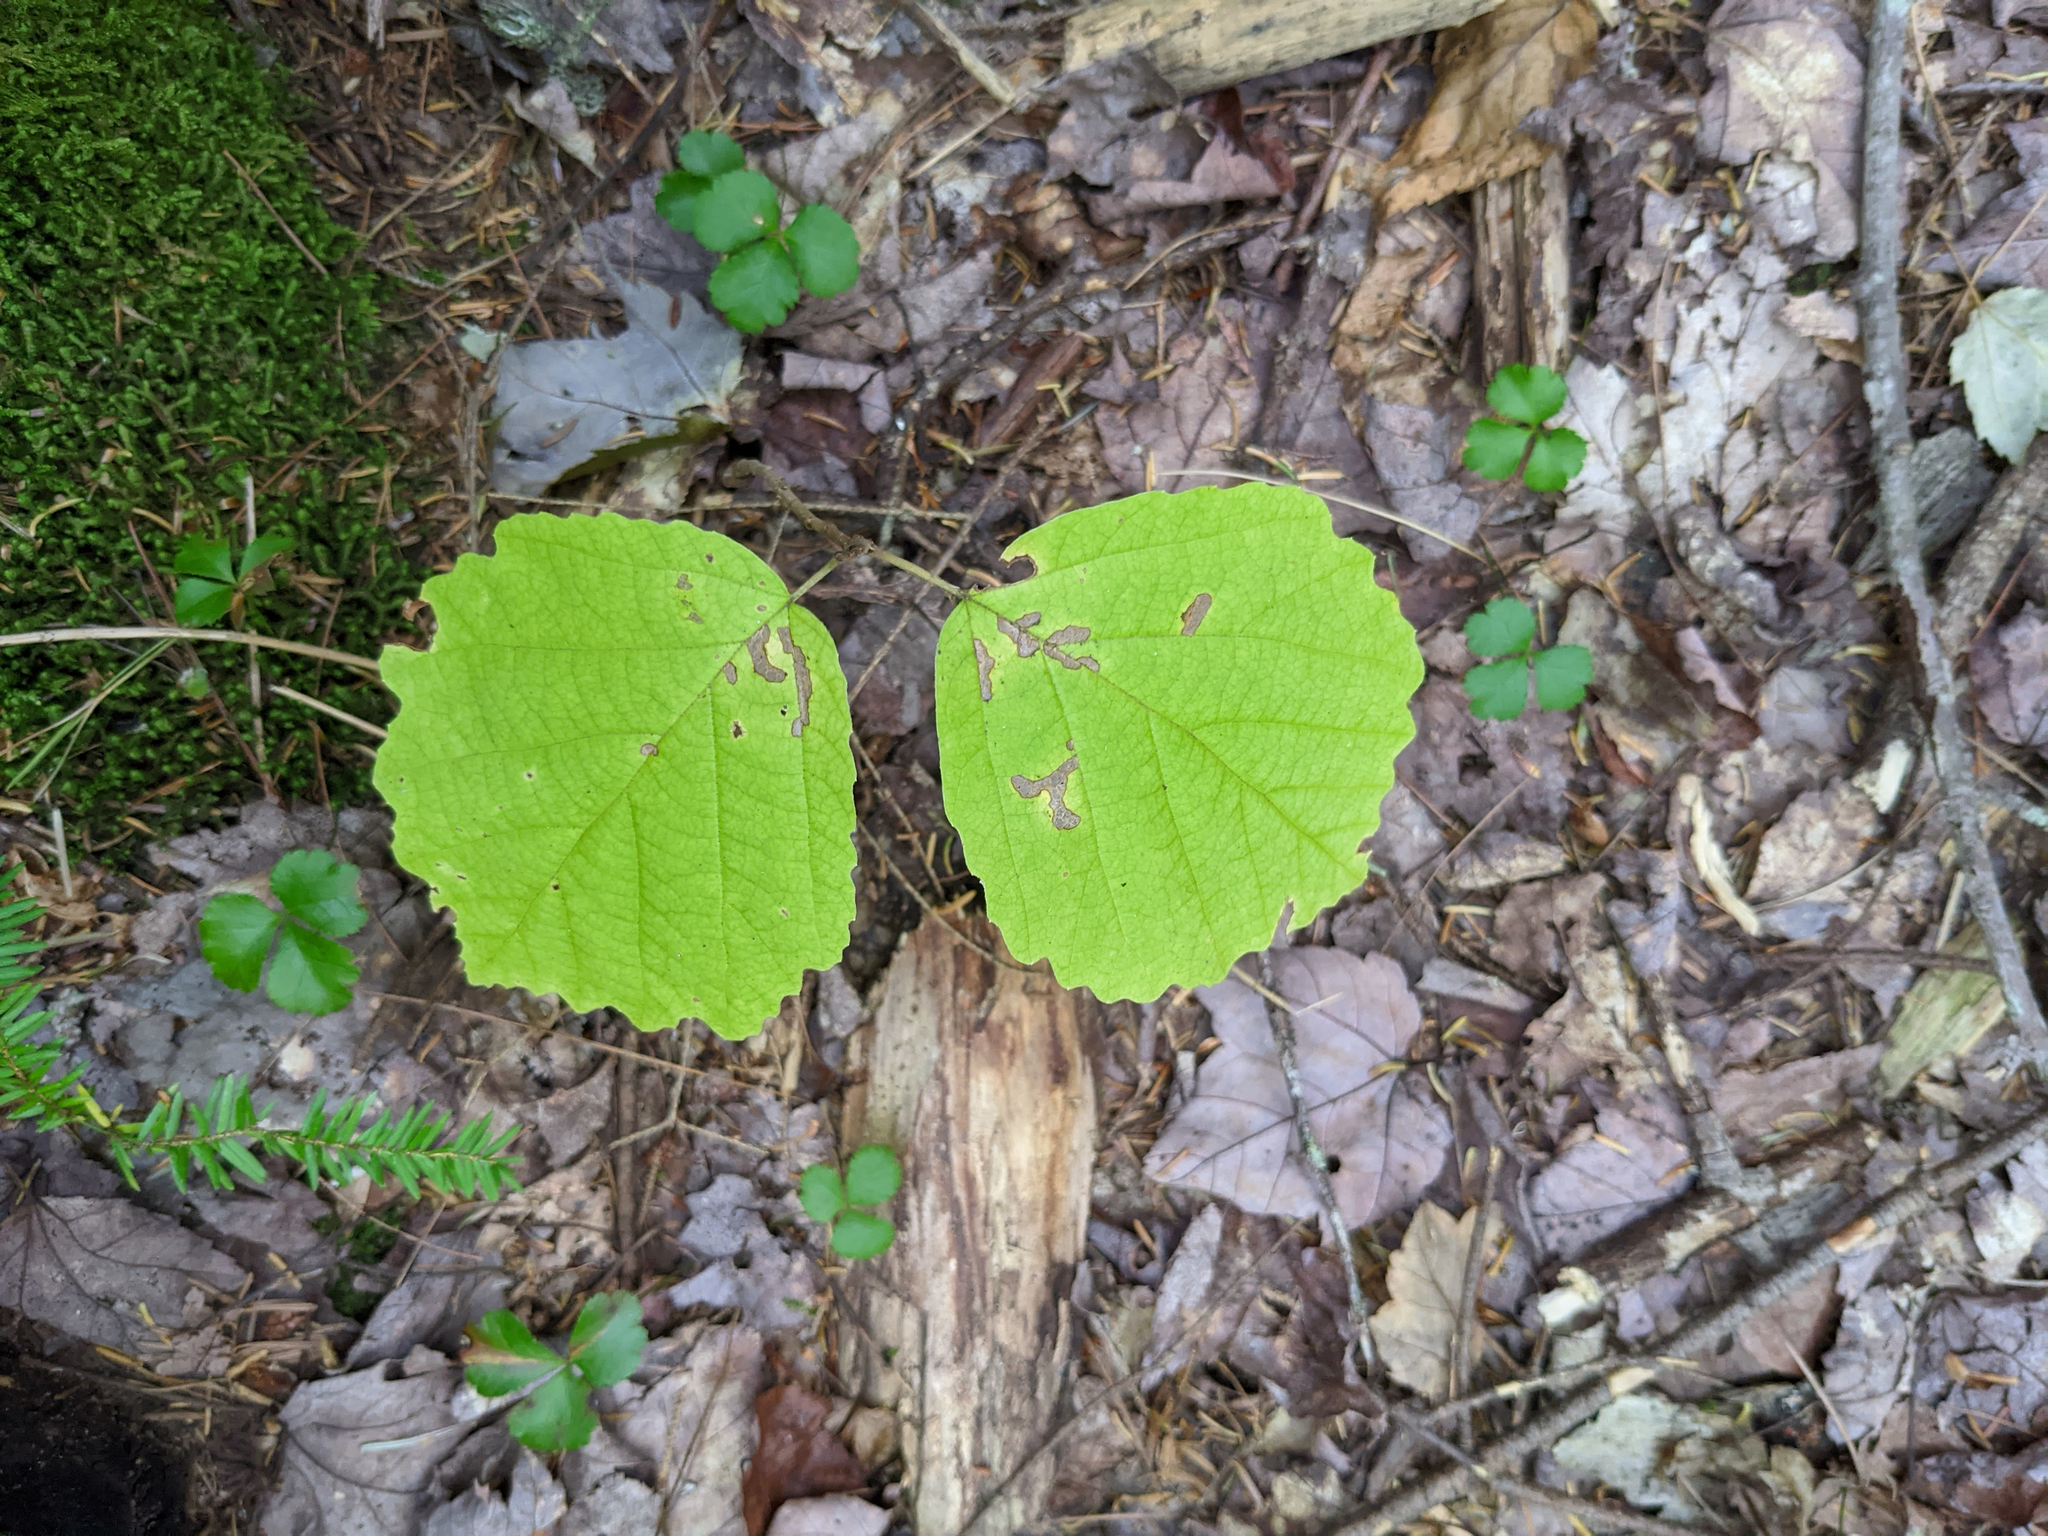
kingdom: Plantae
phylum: Tracheophyta
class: Magnoliopsida
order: Saxifragales
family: Hamamelidaceae
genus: Hamamelis
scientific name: Hamamelis virginiana
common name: Witch-hazel
